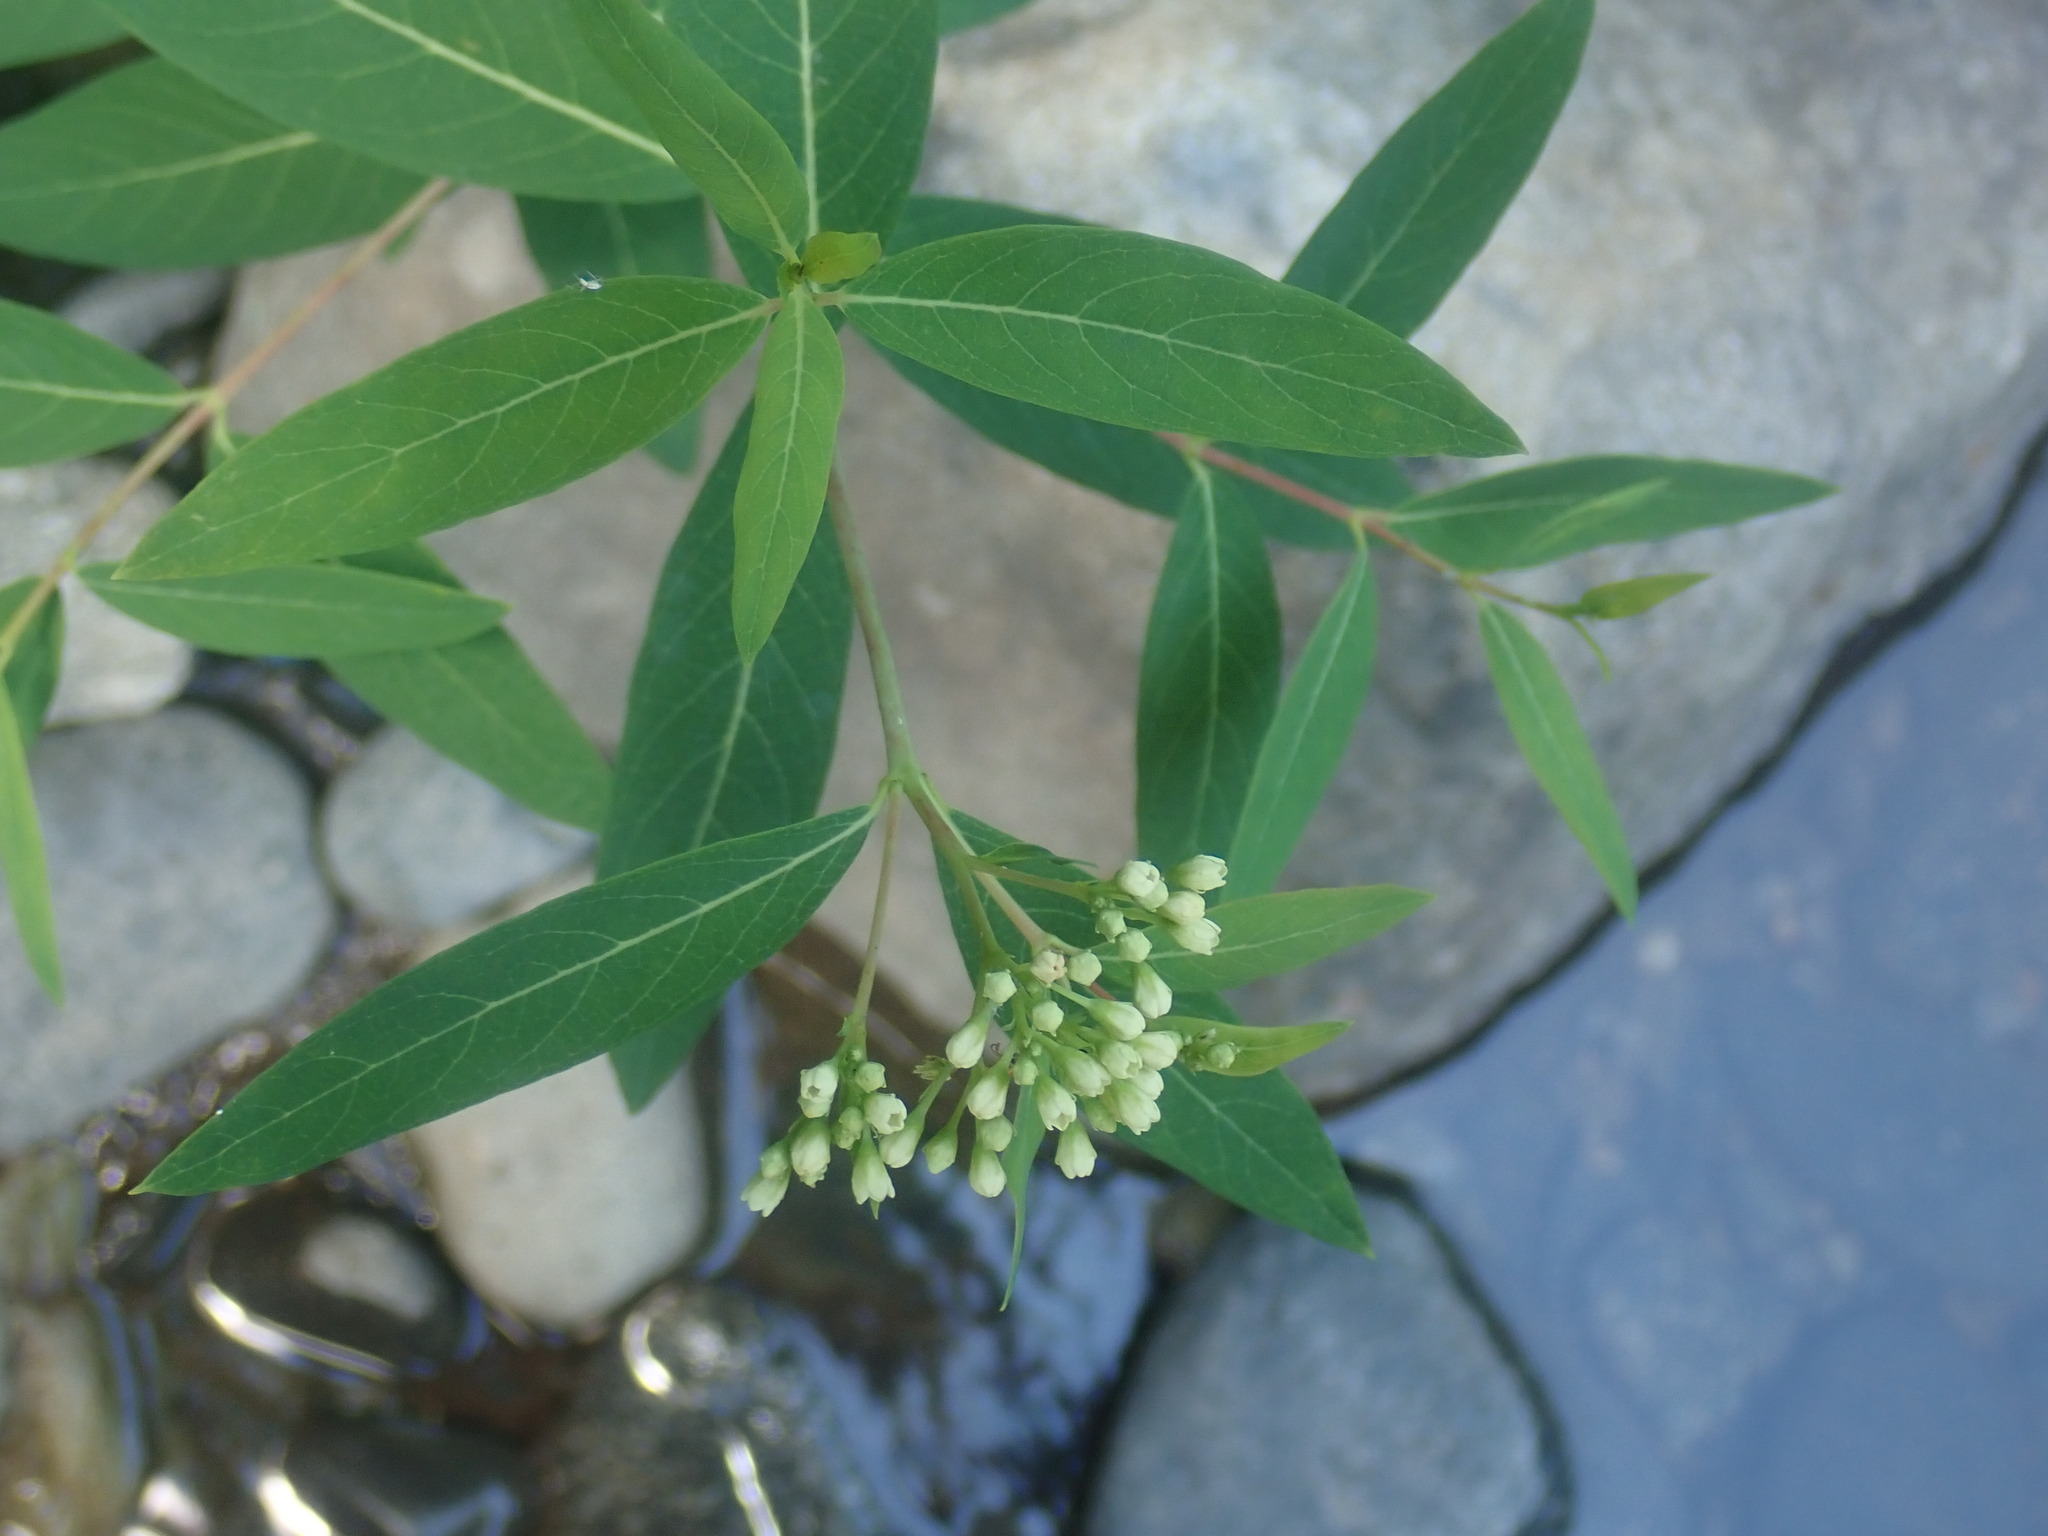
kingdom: Plantae
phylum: Tracheophyta
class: Magnoliopsida
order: Gentianales
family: Apocynaceae
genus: Apocynum
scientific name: Apocynum cannabinum
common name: Hemp dogbane
